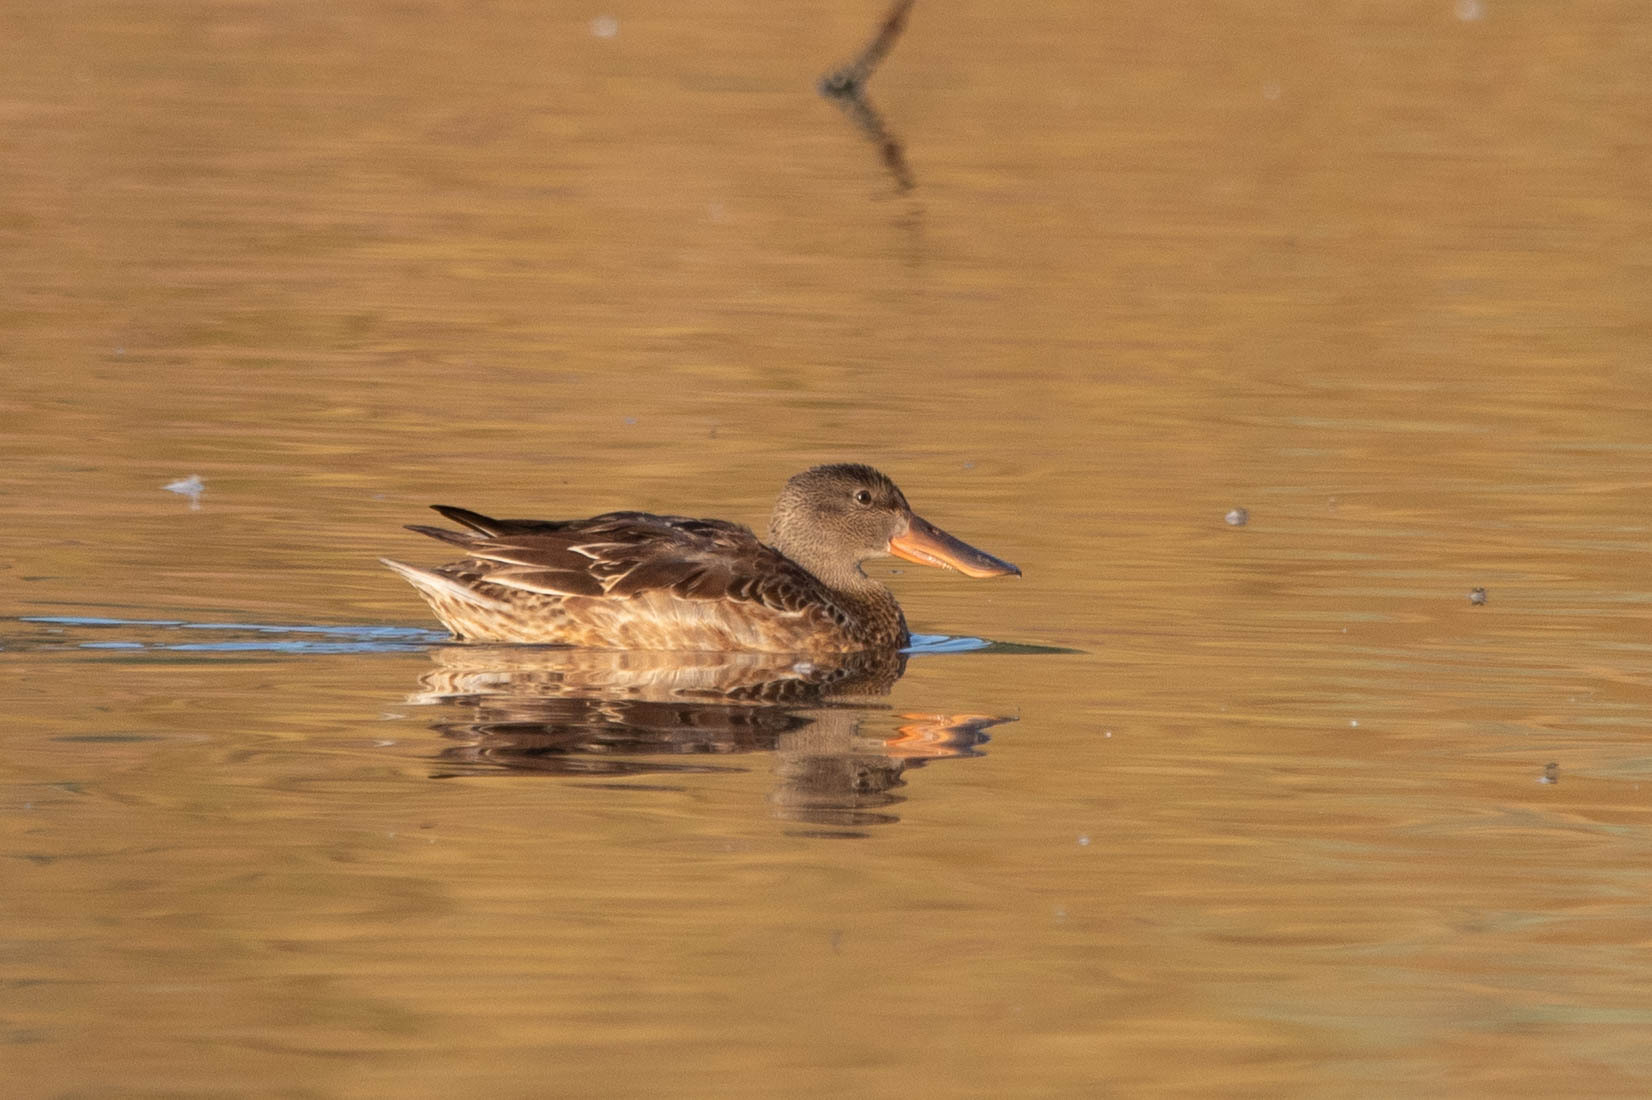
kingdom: Animalia
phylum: Chordata
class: Aves
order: Anseriformes
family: Anatidae
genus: Spatula
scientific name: Spatula clypeata
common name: Northern shoveler
